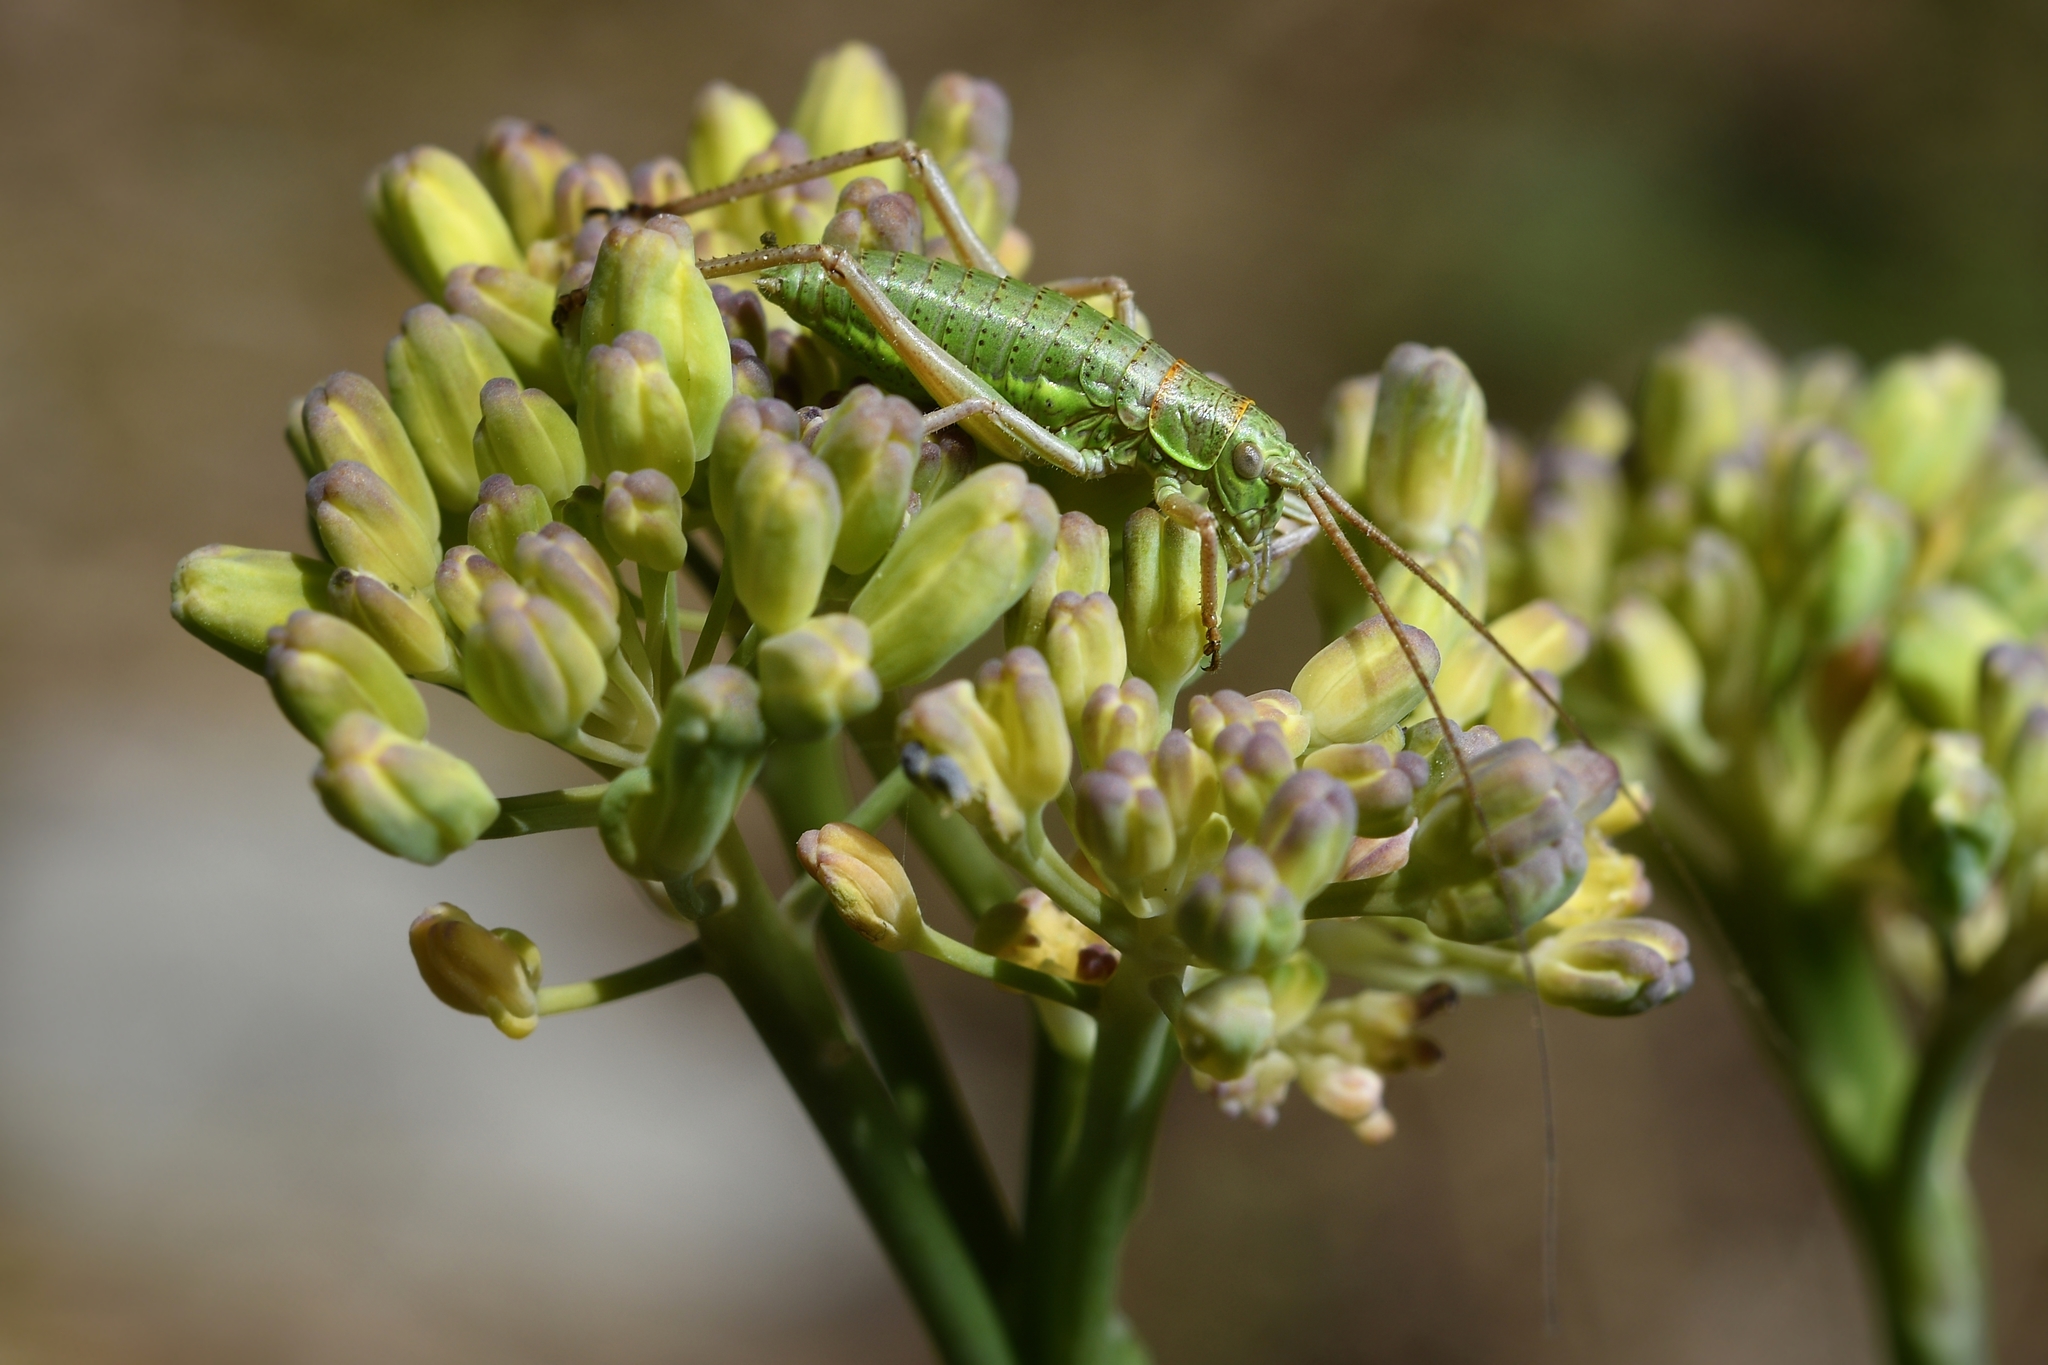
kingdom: Animalia
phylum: Arthropoda
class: Insecta
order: Orthoptera
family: Tettigoniidae
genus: Ephippiger
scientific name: Ephippiger diurnus
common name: Western saddle bush-cricket
